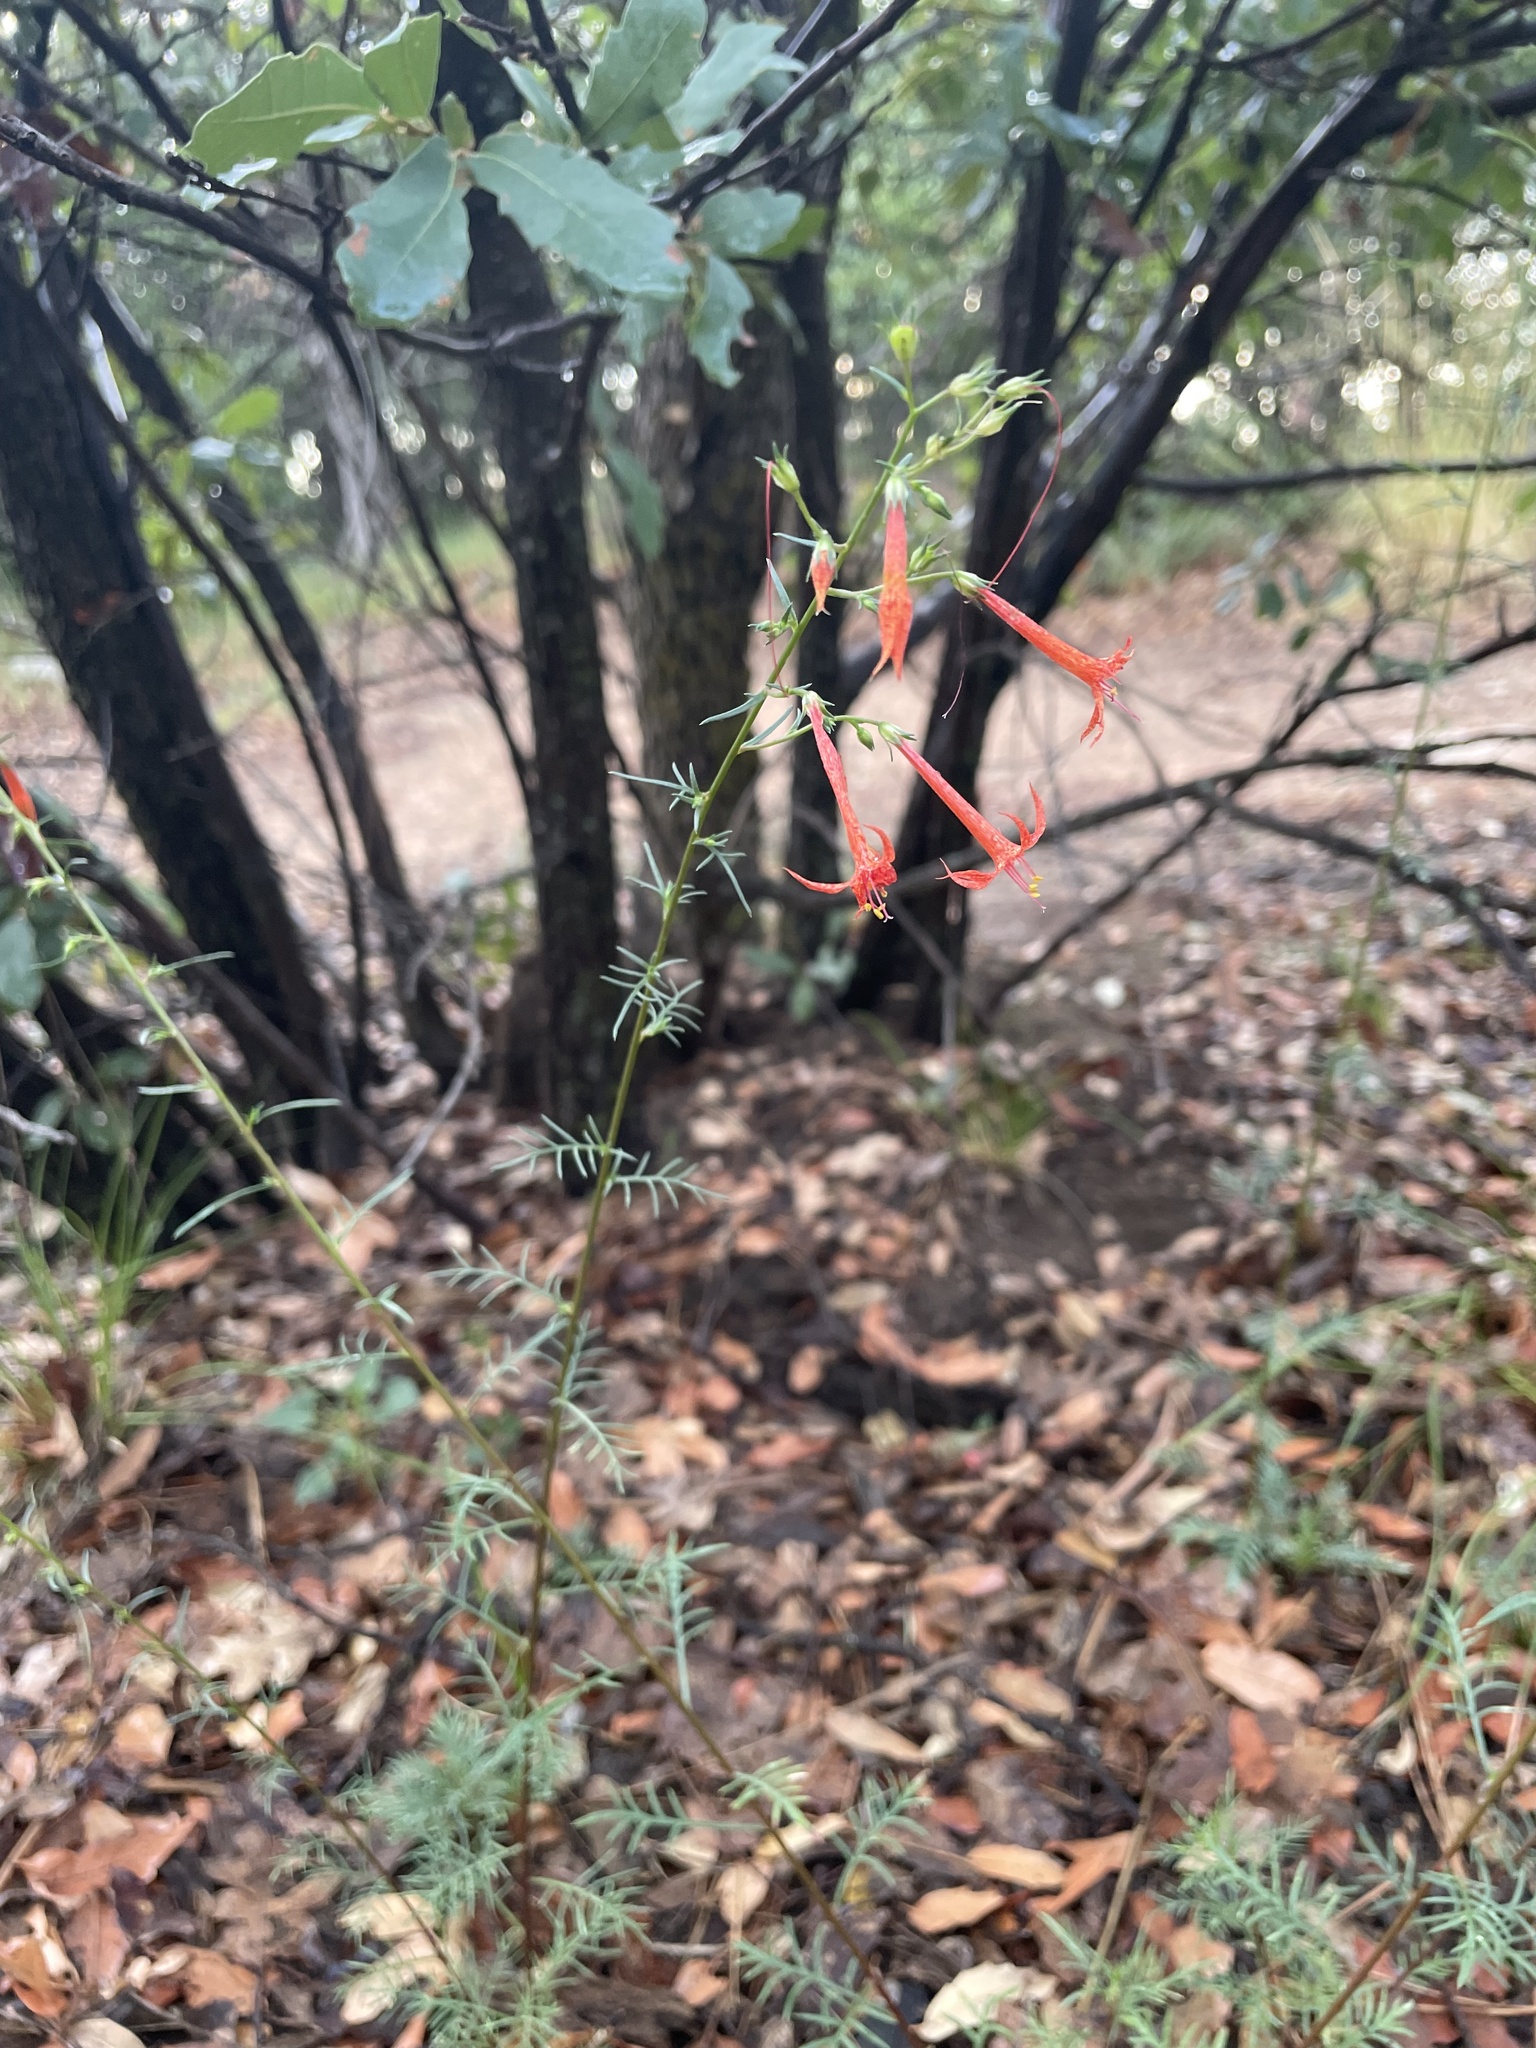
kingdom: Plantae
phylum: Tracheophyta
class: Magnoliopsida
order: Ericales
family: Polemoniaceae
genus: Ipomopsis
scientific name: Ipomopsis aggregata
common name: Scarlet gilia
